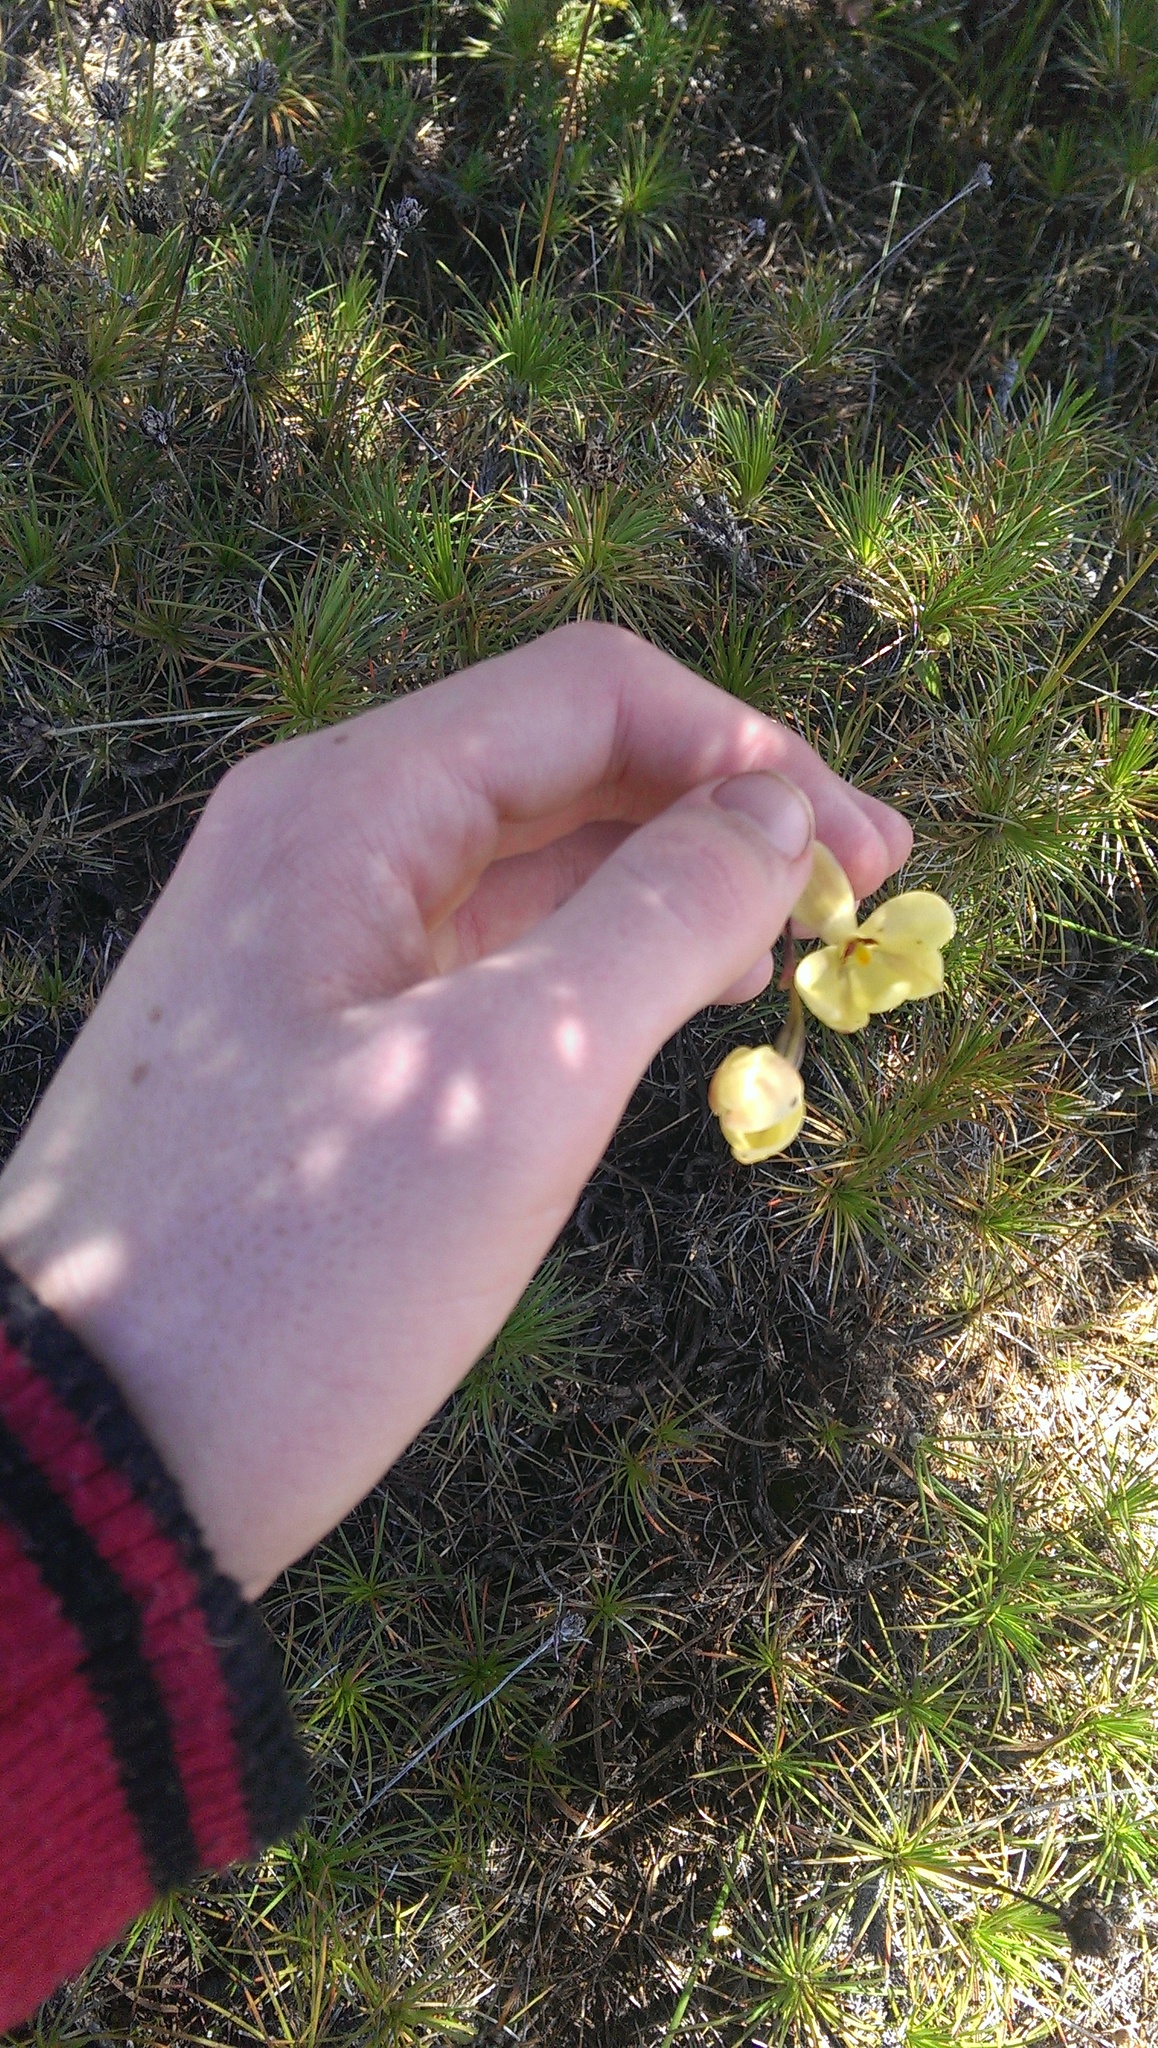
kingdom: Plantae
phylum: Tracheophyta
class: Liliopsida
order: Asparagales
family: Orchidaceae
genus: Thelymitra
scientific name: Thelymitra antennifera
